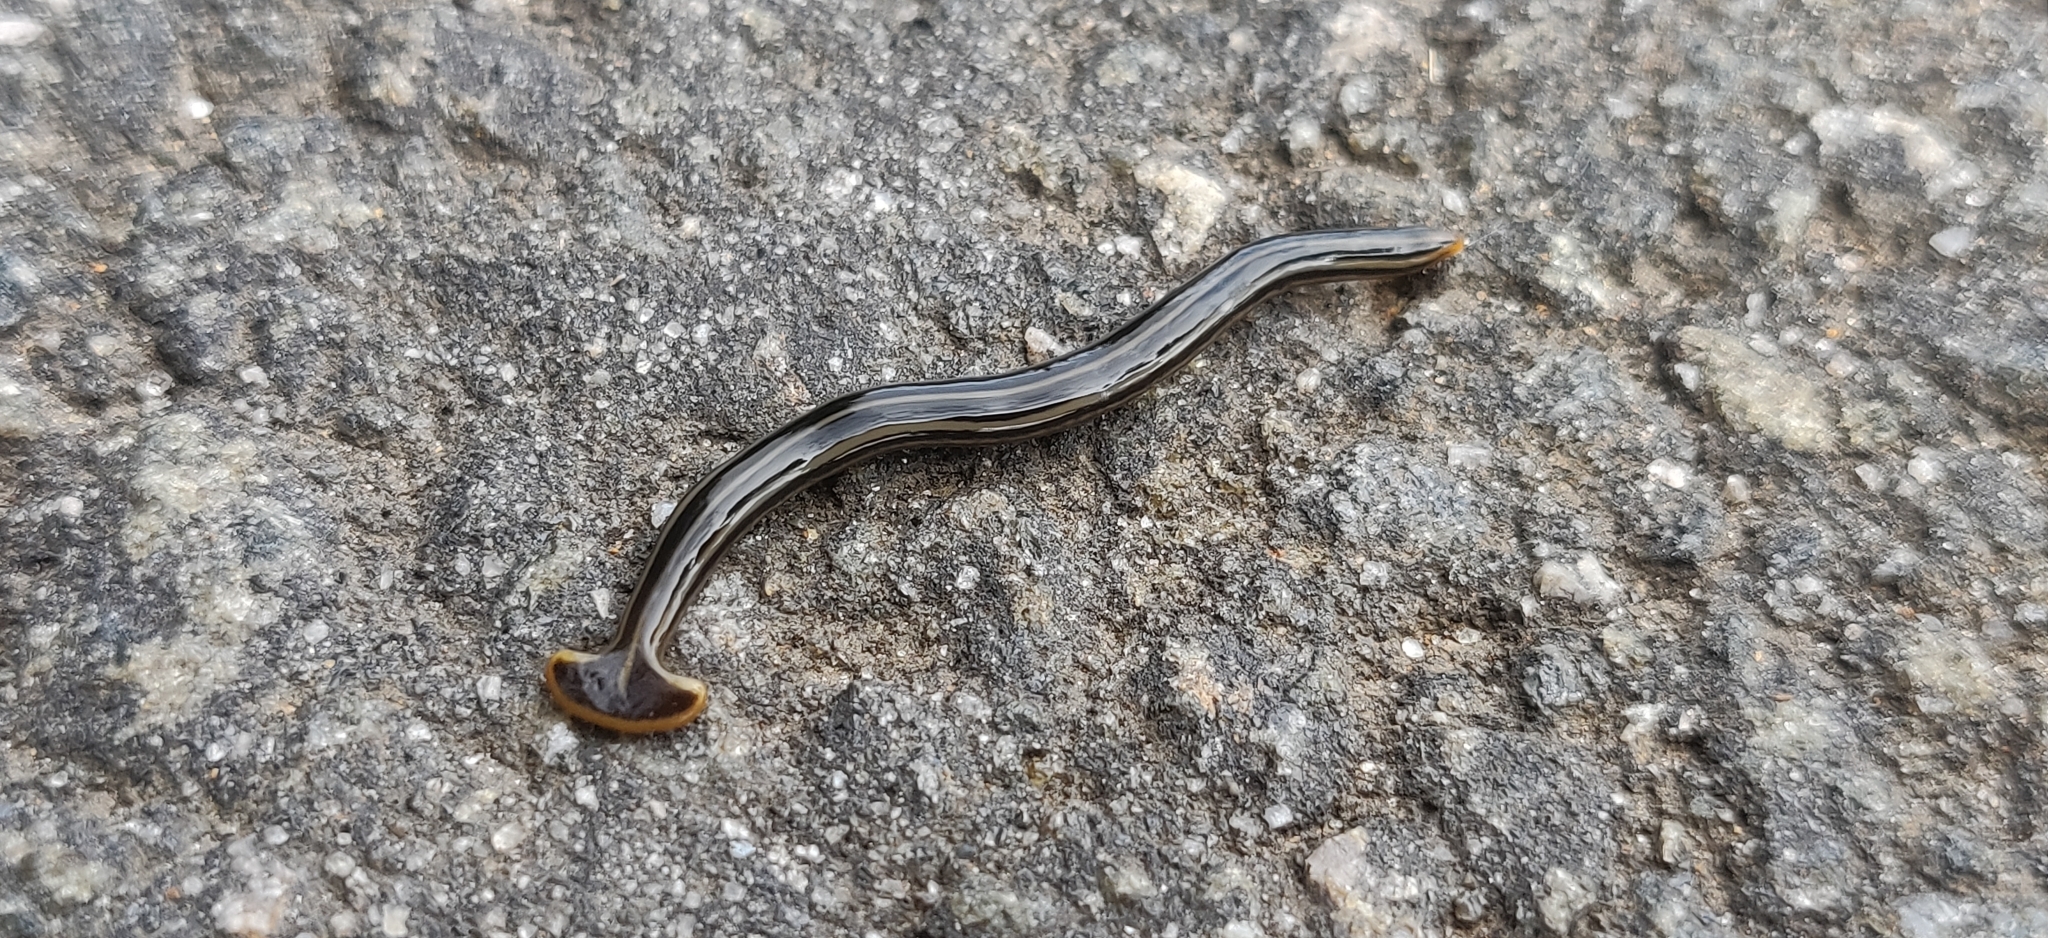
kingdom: Animalia
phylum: Platyhelminthes
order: Tricladida
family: Geoplanidae
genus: Humbertium
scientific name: Humbertium proserpina
